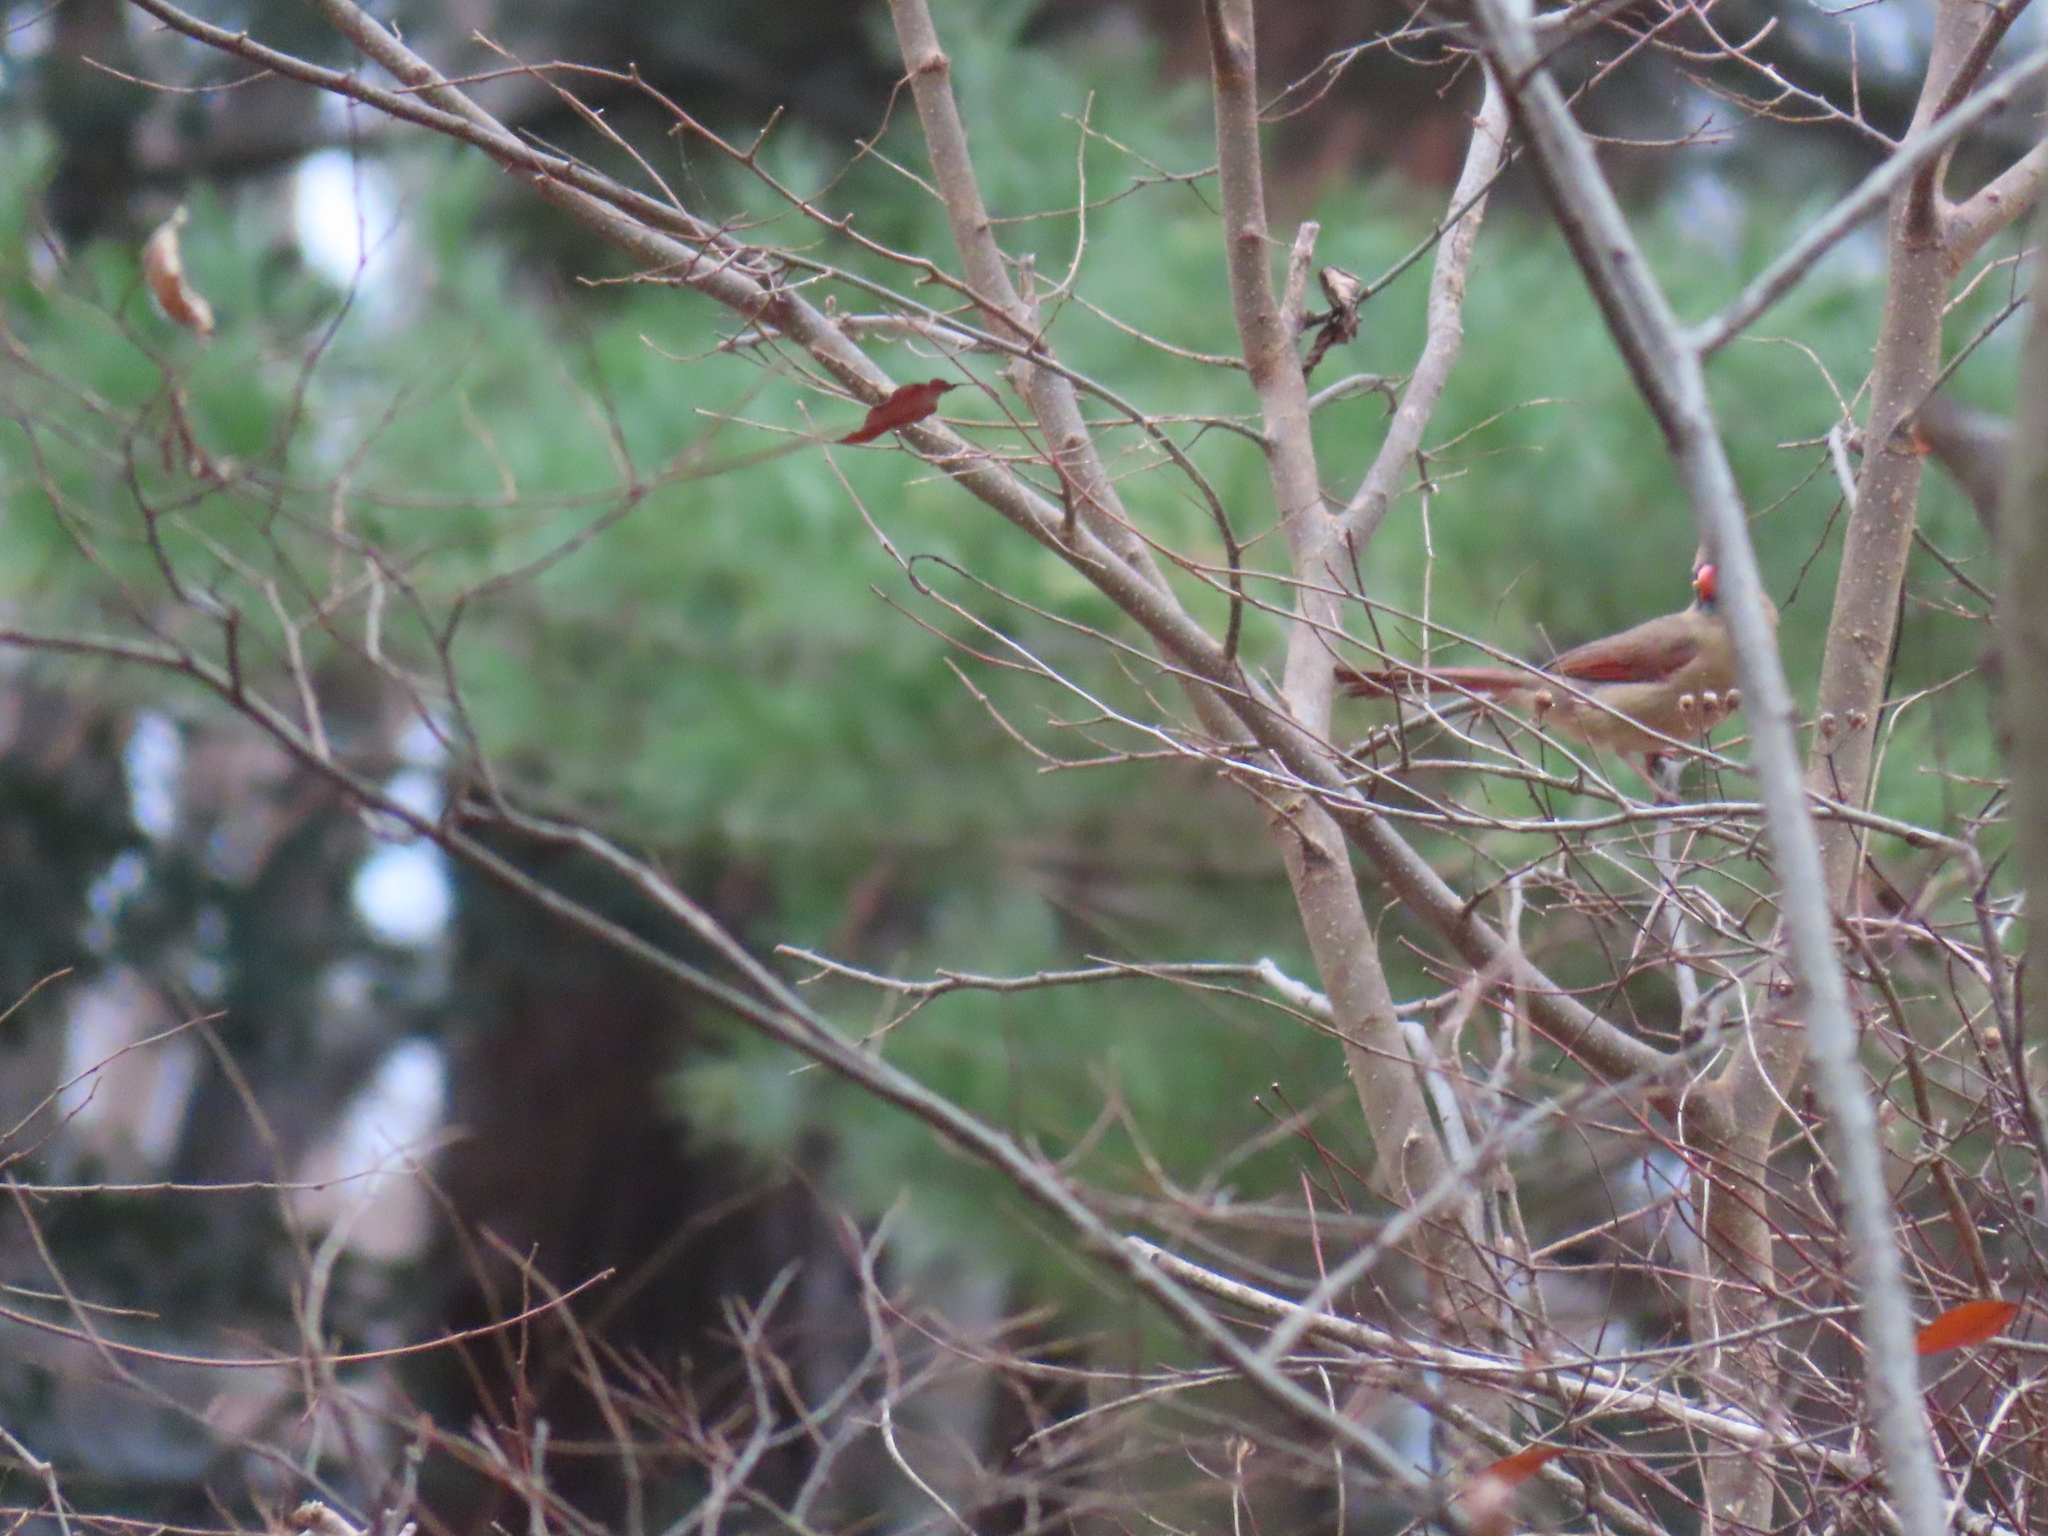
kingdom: Animalia
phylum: Chordata
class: Aves
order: Passeriformes
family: Cardinalidae
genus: Cardinalis
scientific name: Cardinalis cardinalis
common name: Northern cardinal
